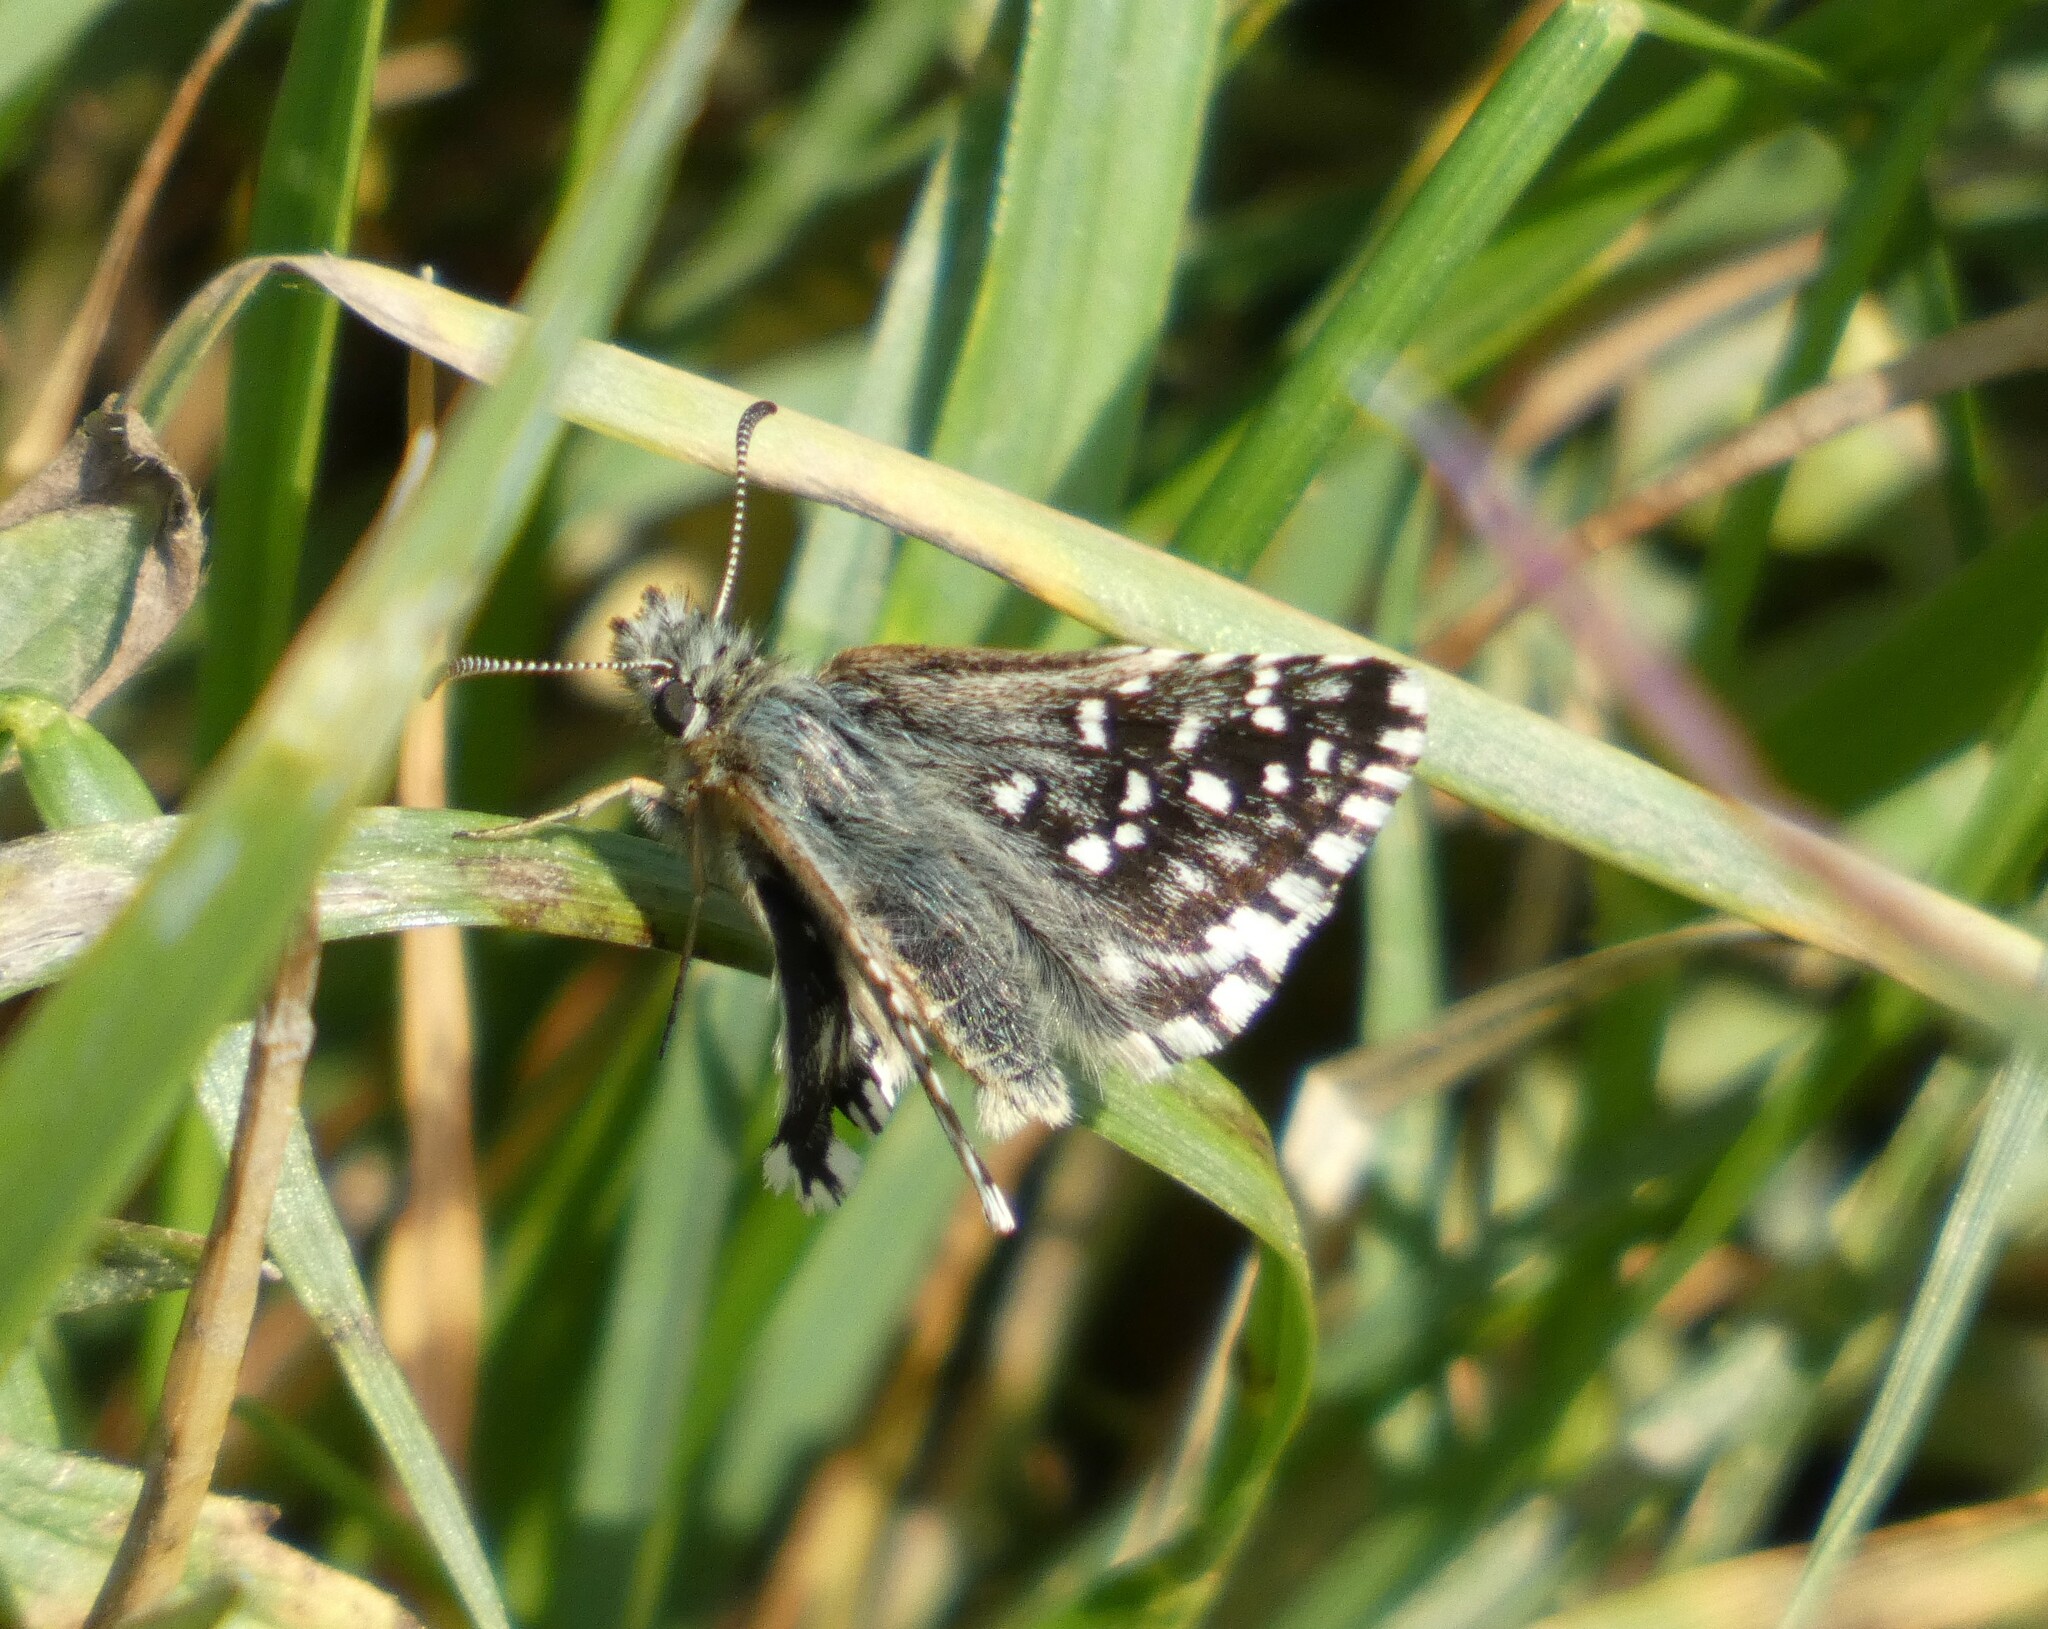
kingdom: Animalia
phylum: Arthropoda
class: Insecta
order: Lepidoptera
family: Hesperiidae
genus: Pyrgus
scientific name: Pyrgus malvae
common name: Grizzled skipper
